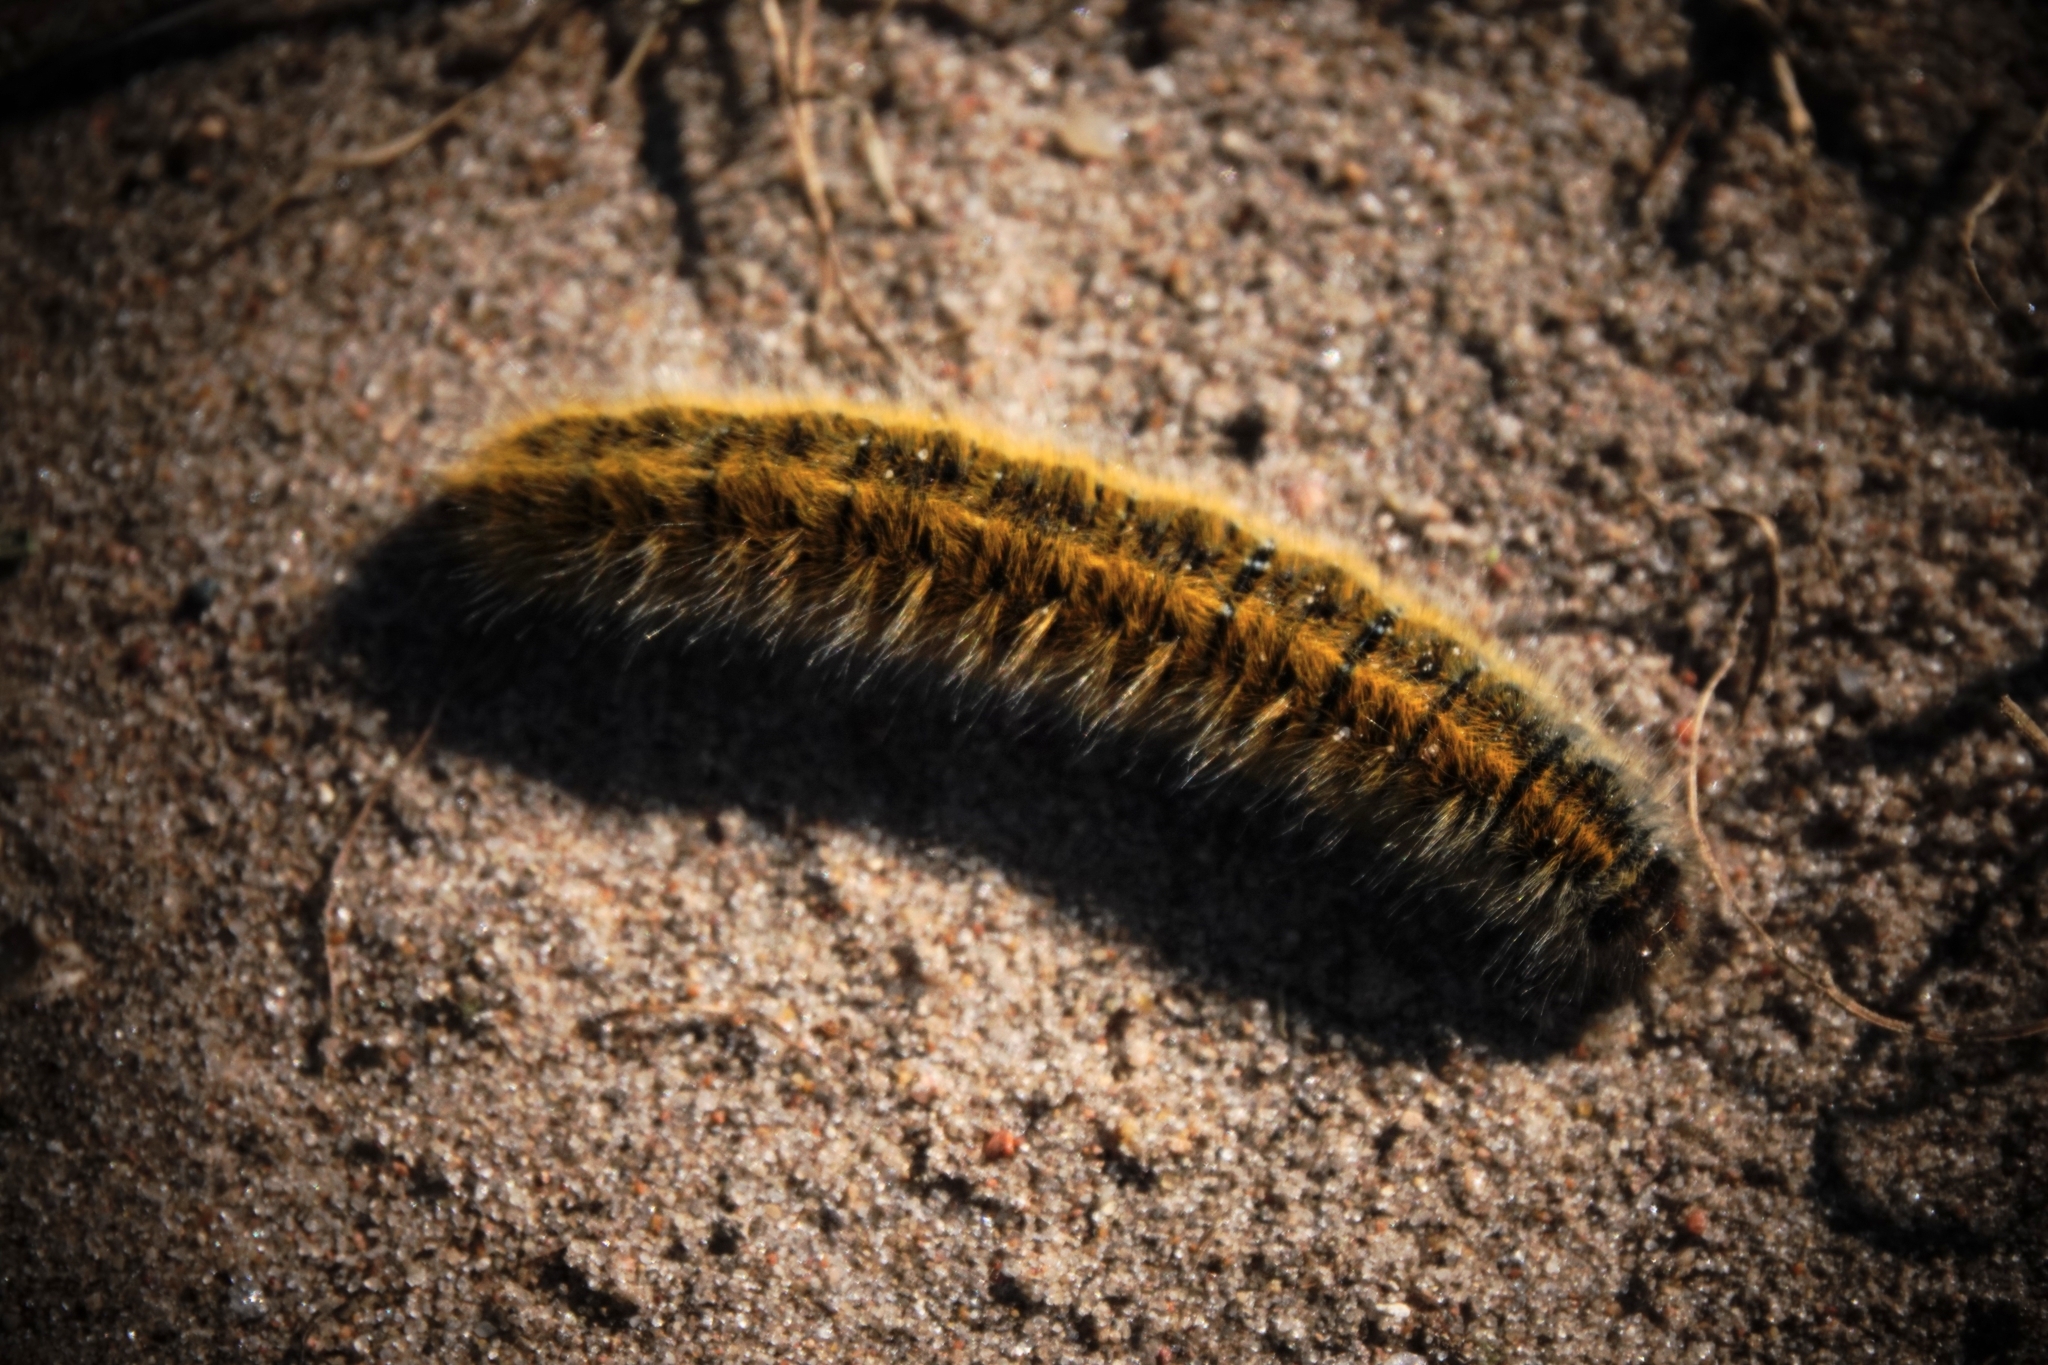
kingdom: Animalia
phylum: Arthropoda
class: Insecta
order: Lepidoptera
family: Lasiocampidae
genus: Lasiocampa
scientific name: Lasiocampa trifolii
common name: Grass eggar
